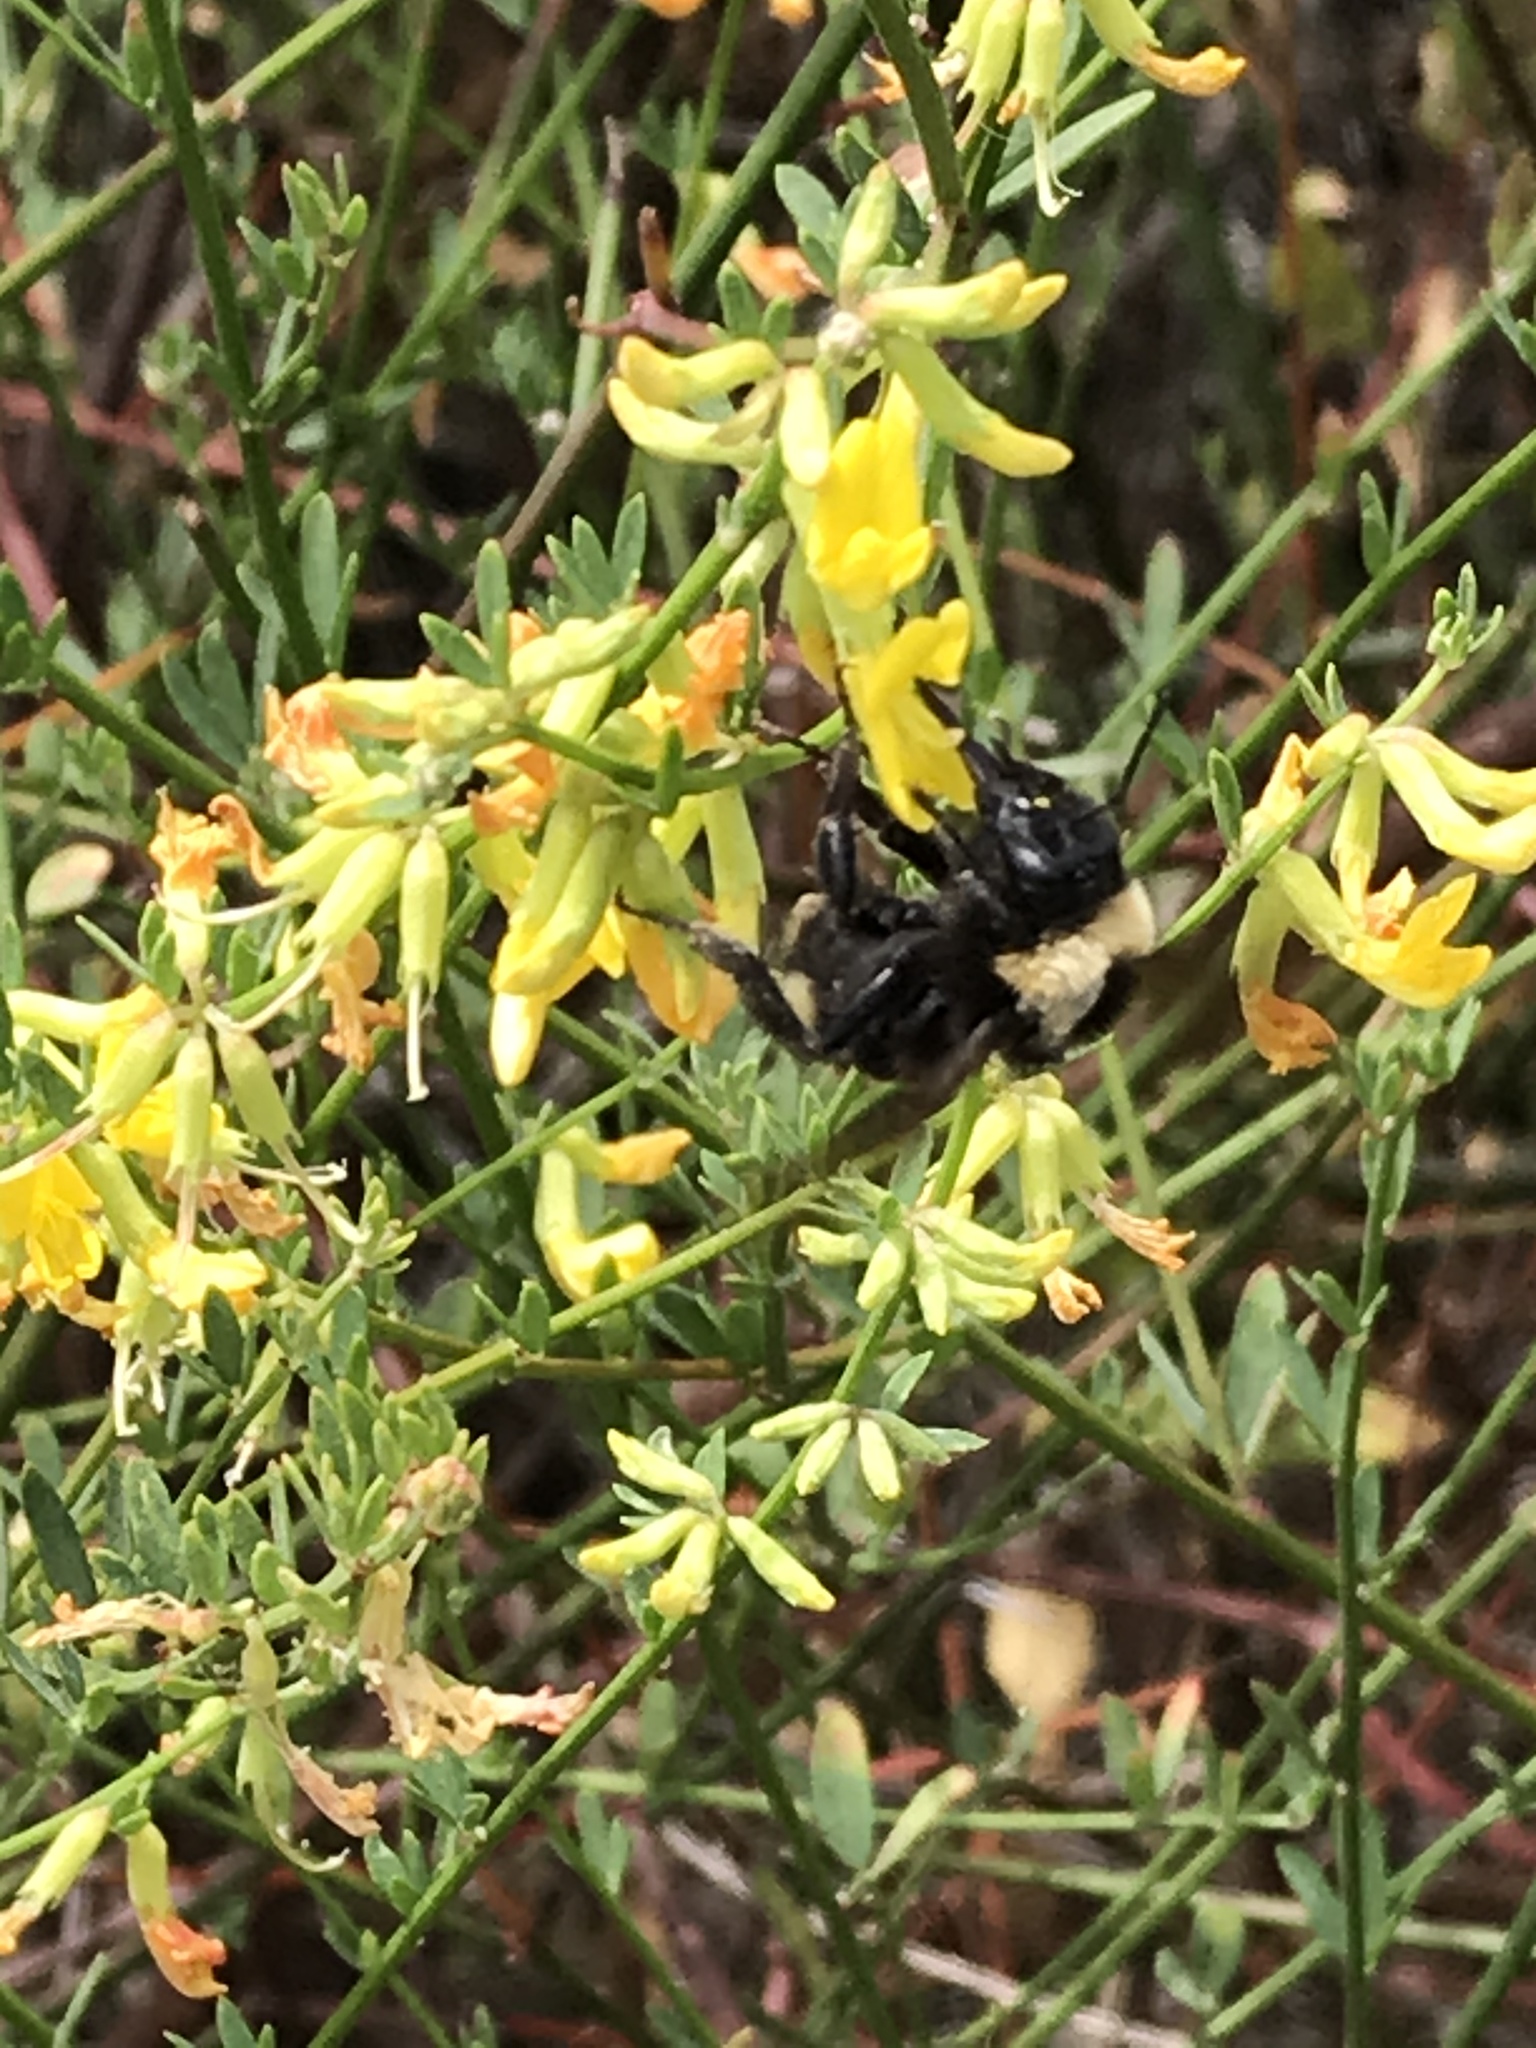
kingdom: Animalia
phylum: Arthropoda
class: Insecta
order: Hymenoptera
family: Apidae
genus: Bombus
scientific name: Bombus californicus
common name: California bumble bee
